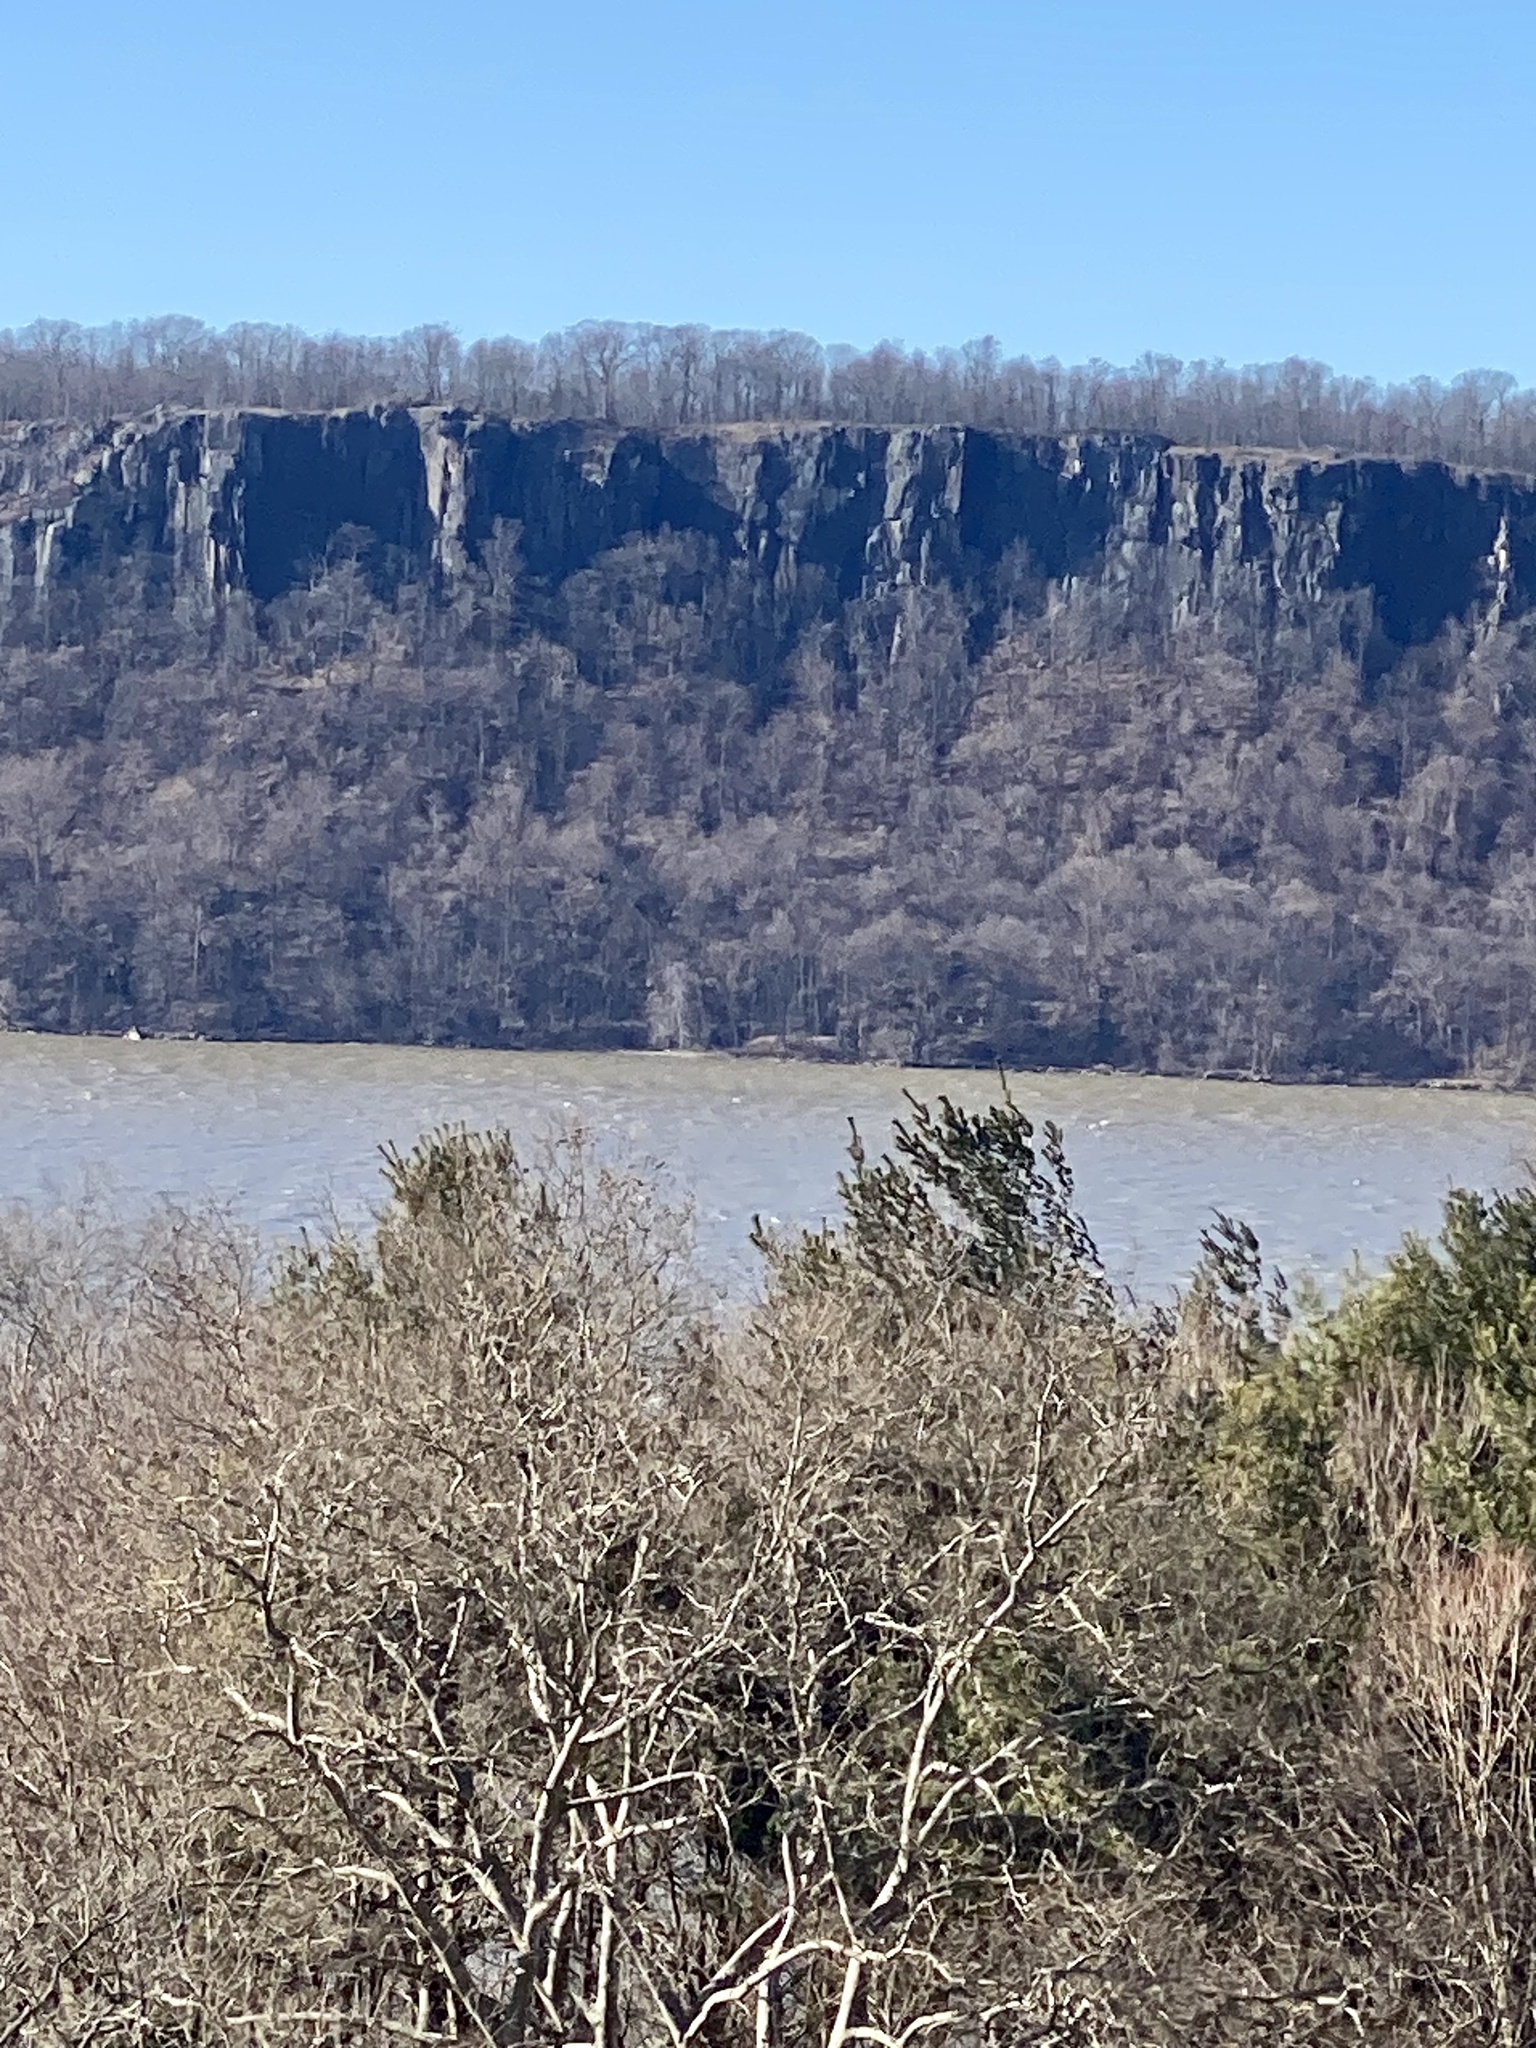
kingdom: Plantae
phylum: Tracheophyta
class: Magnoliopsida
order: Lamiales
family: Lamiaceae
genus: Glechoma
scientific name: Glechoma hederacea
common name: Ground ivy
